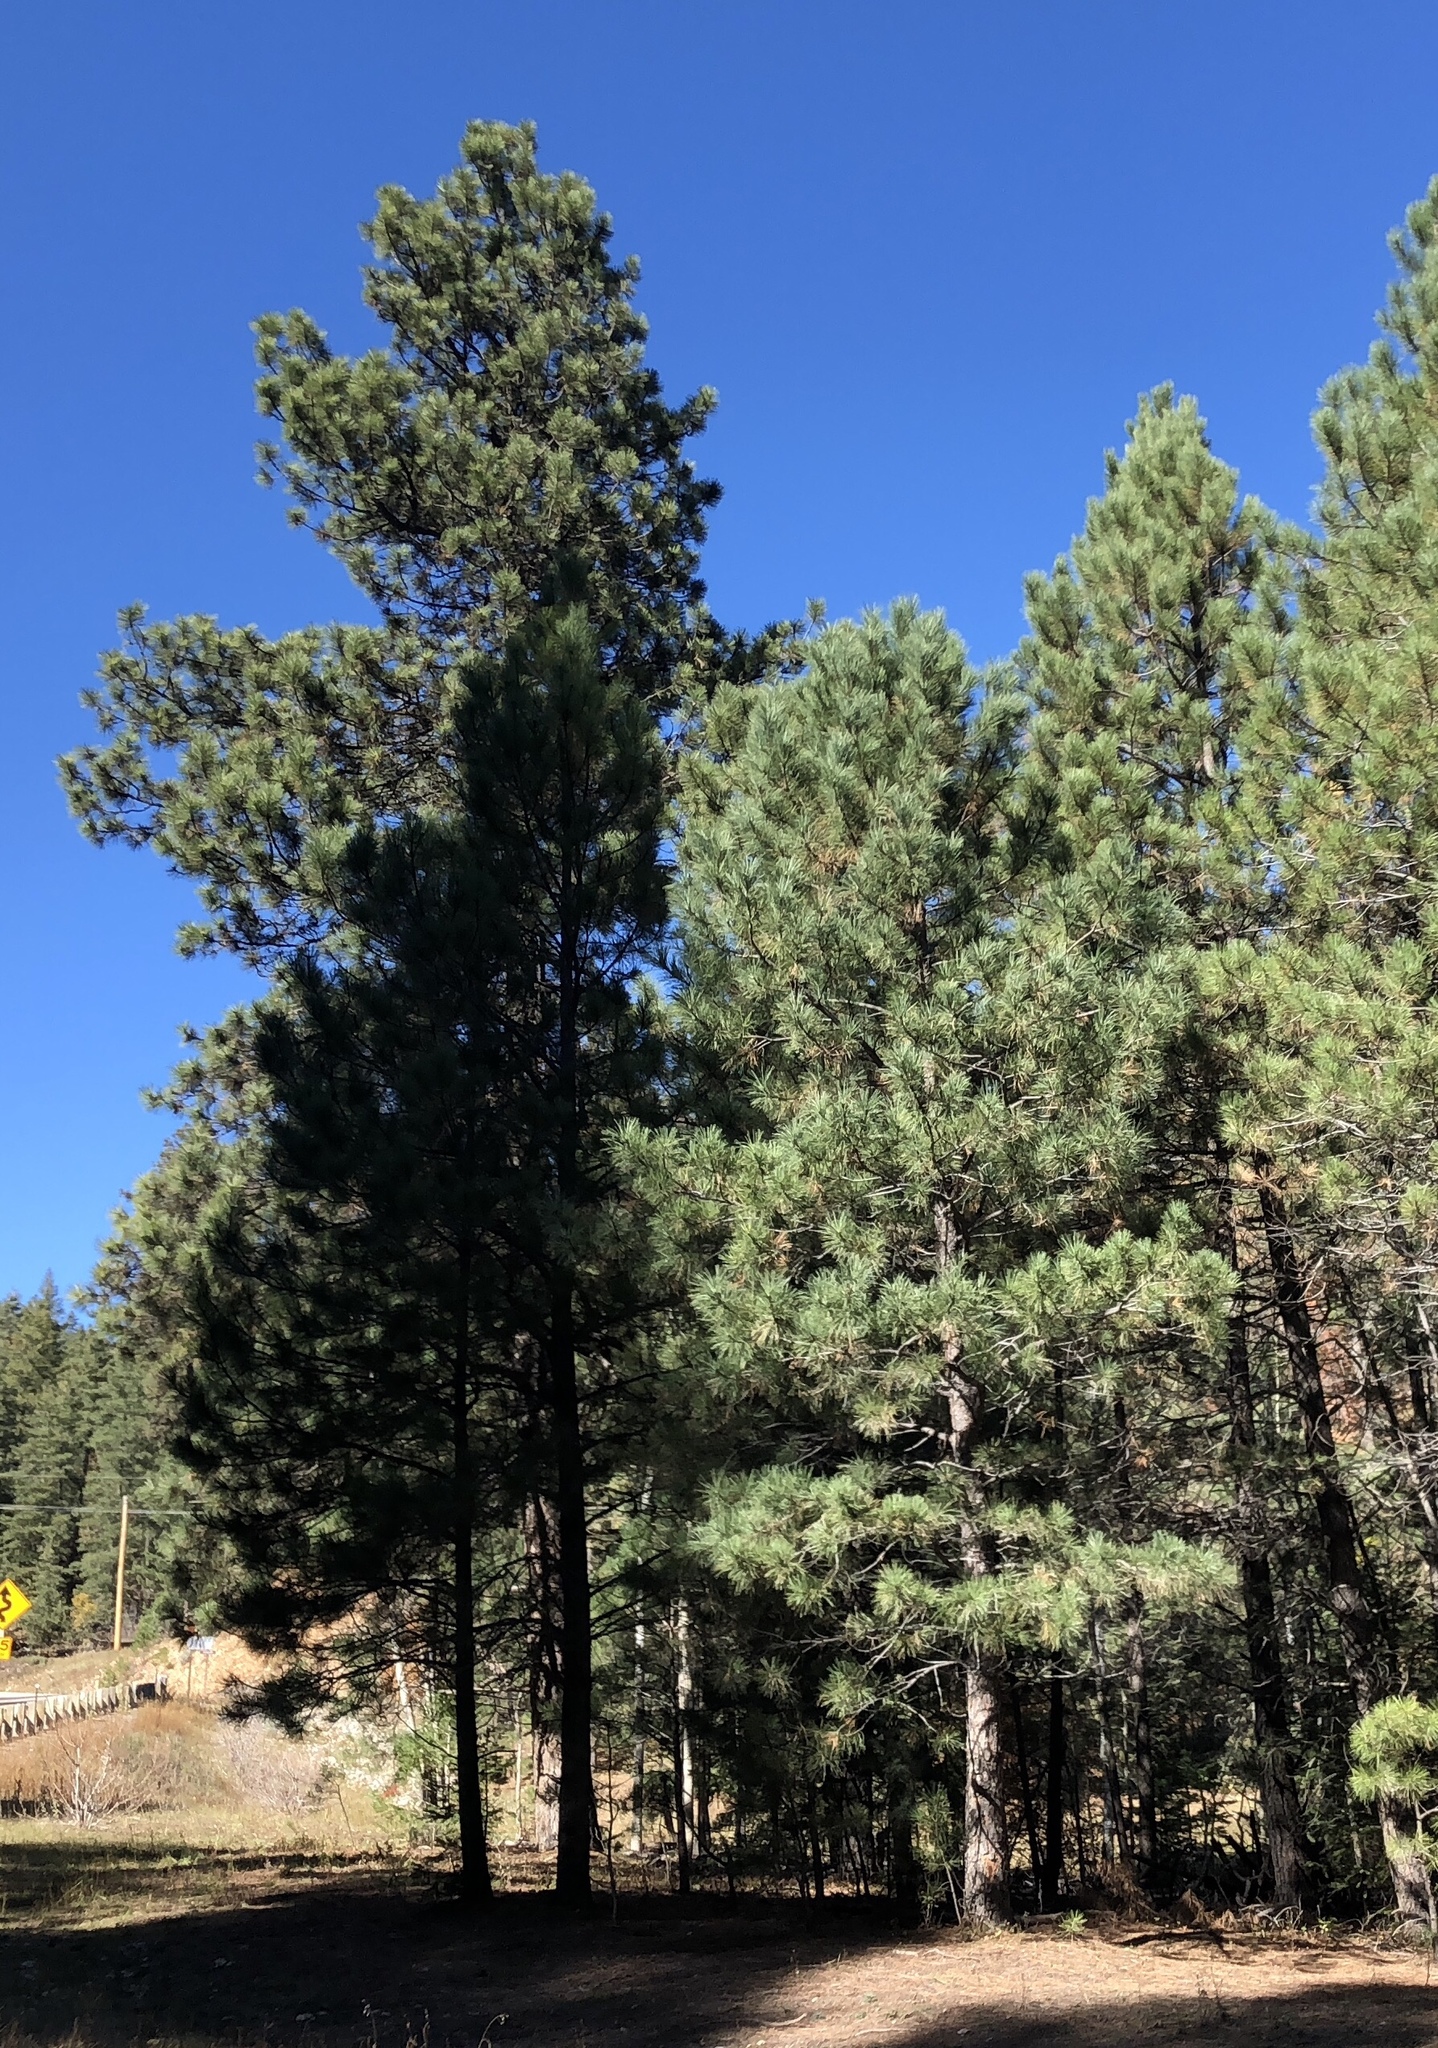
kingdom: Plantae
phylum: Tracheophyta
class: Pinopsida
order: Pinales
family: Pinaceae
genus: Pinus
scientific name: Pinus ponderosa
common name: Western yellow-pine
